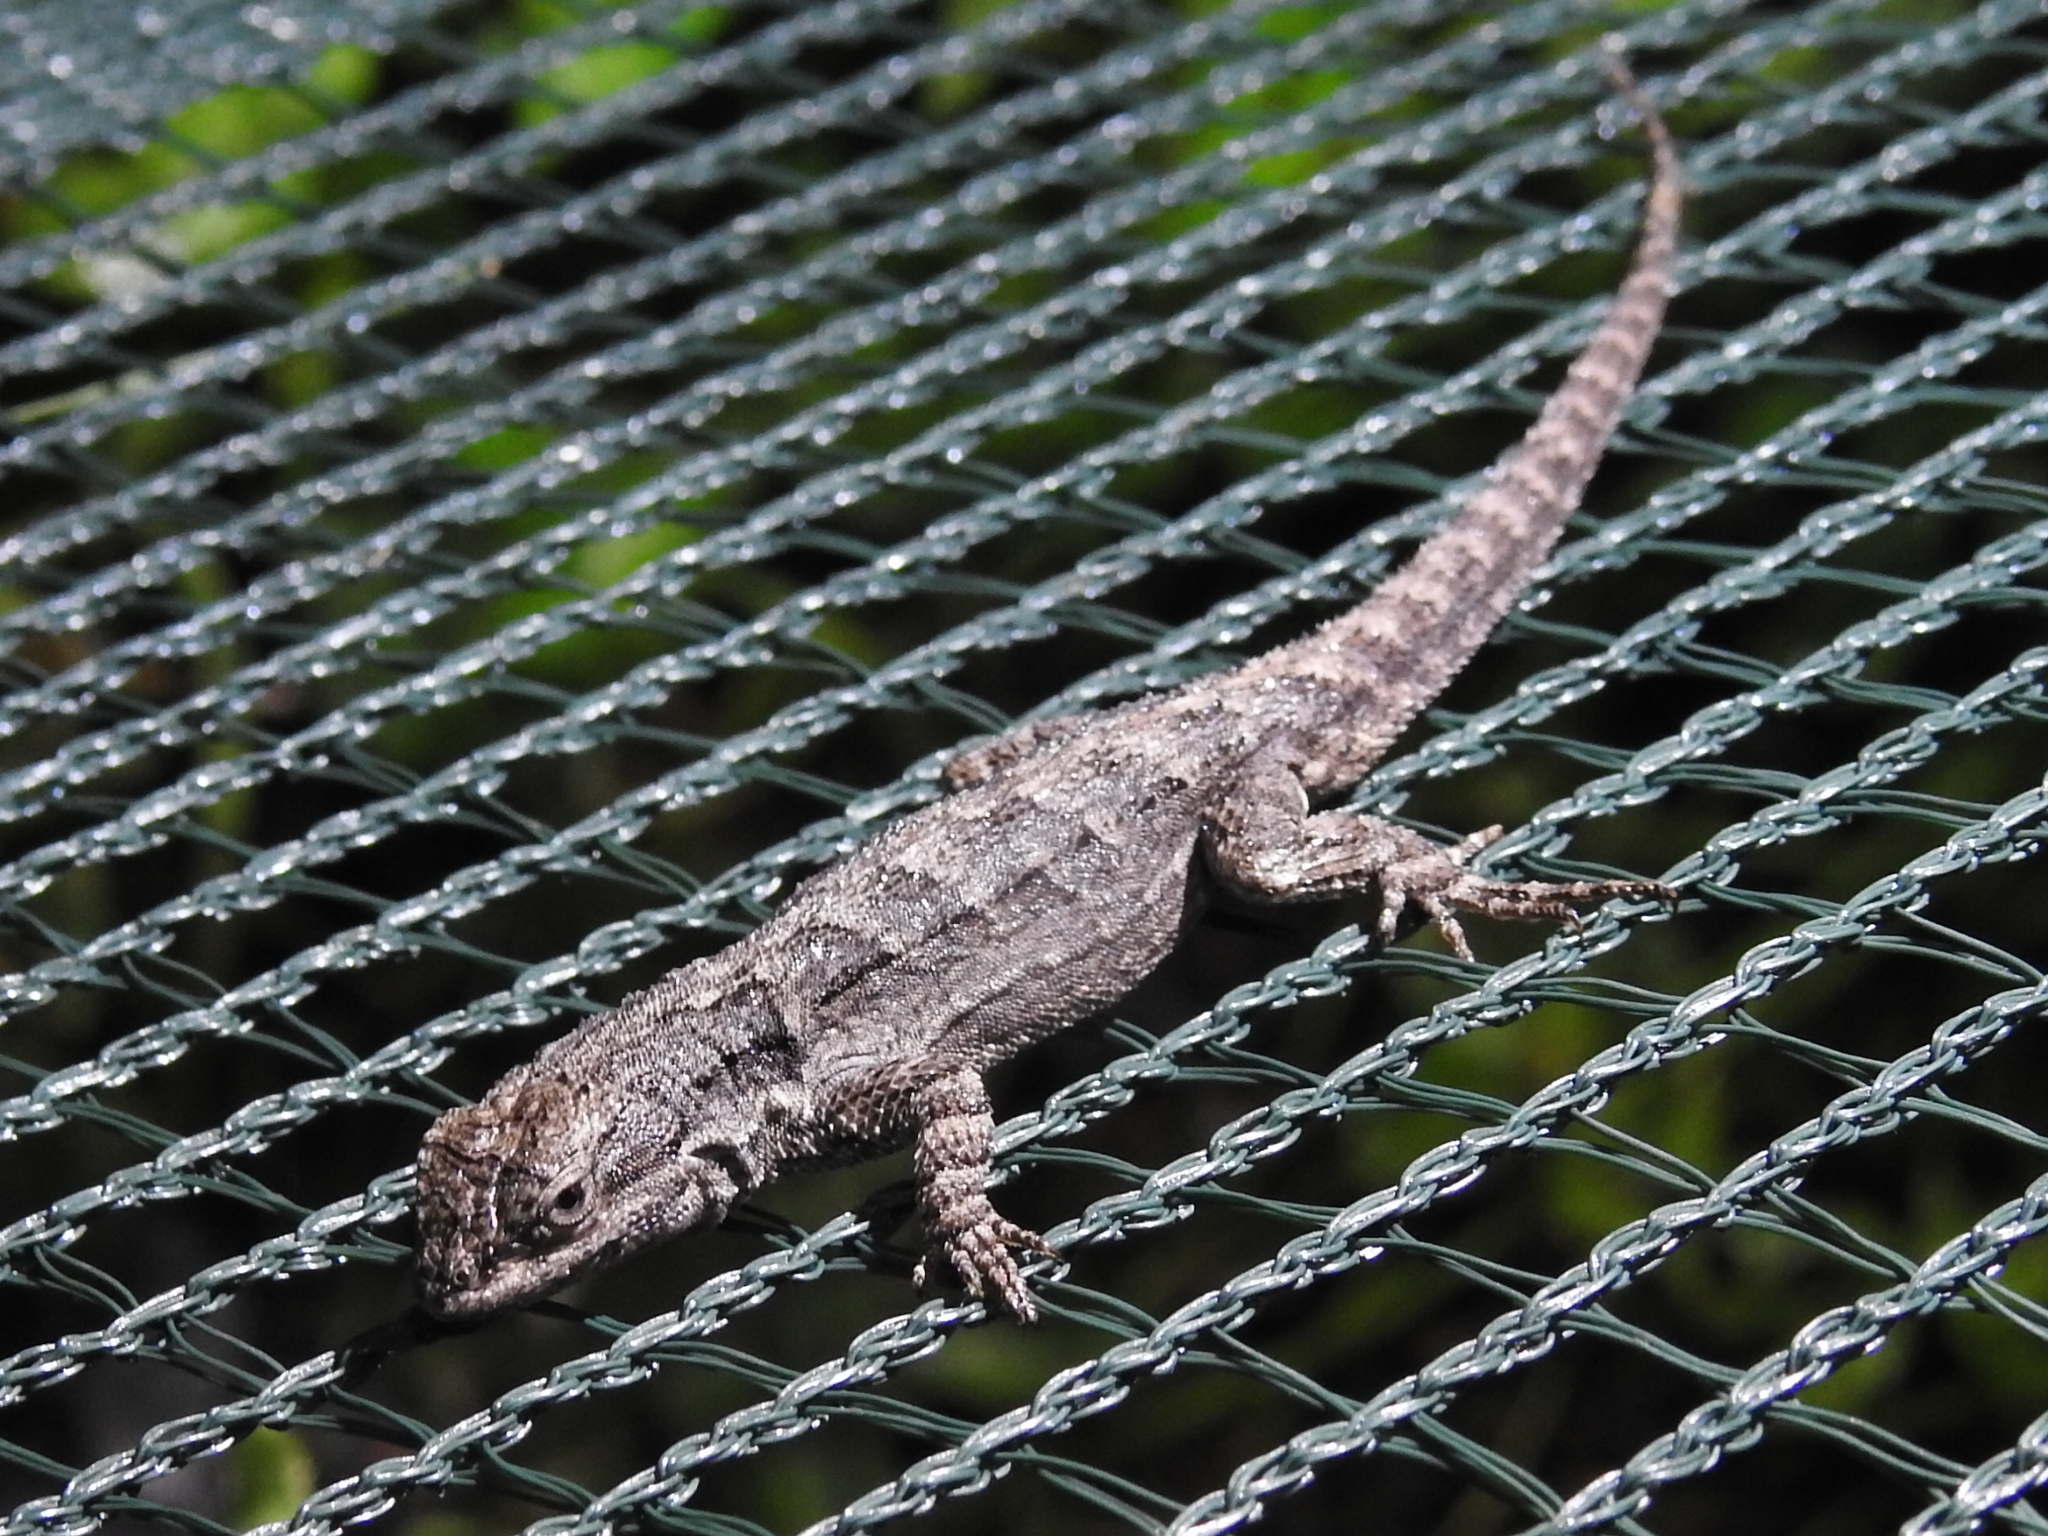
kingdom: Animalia
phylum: Chordata
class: Squamata
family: Phrynosomatidae
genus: Urosaurus
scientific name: Urosaurus ornatus
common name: Ornate tree lizard
